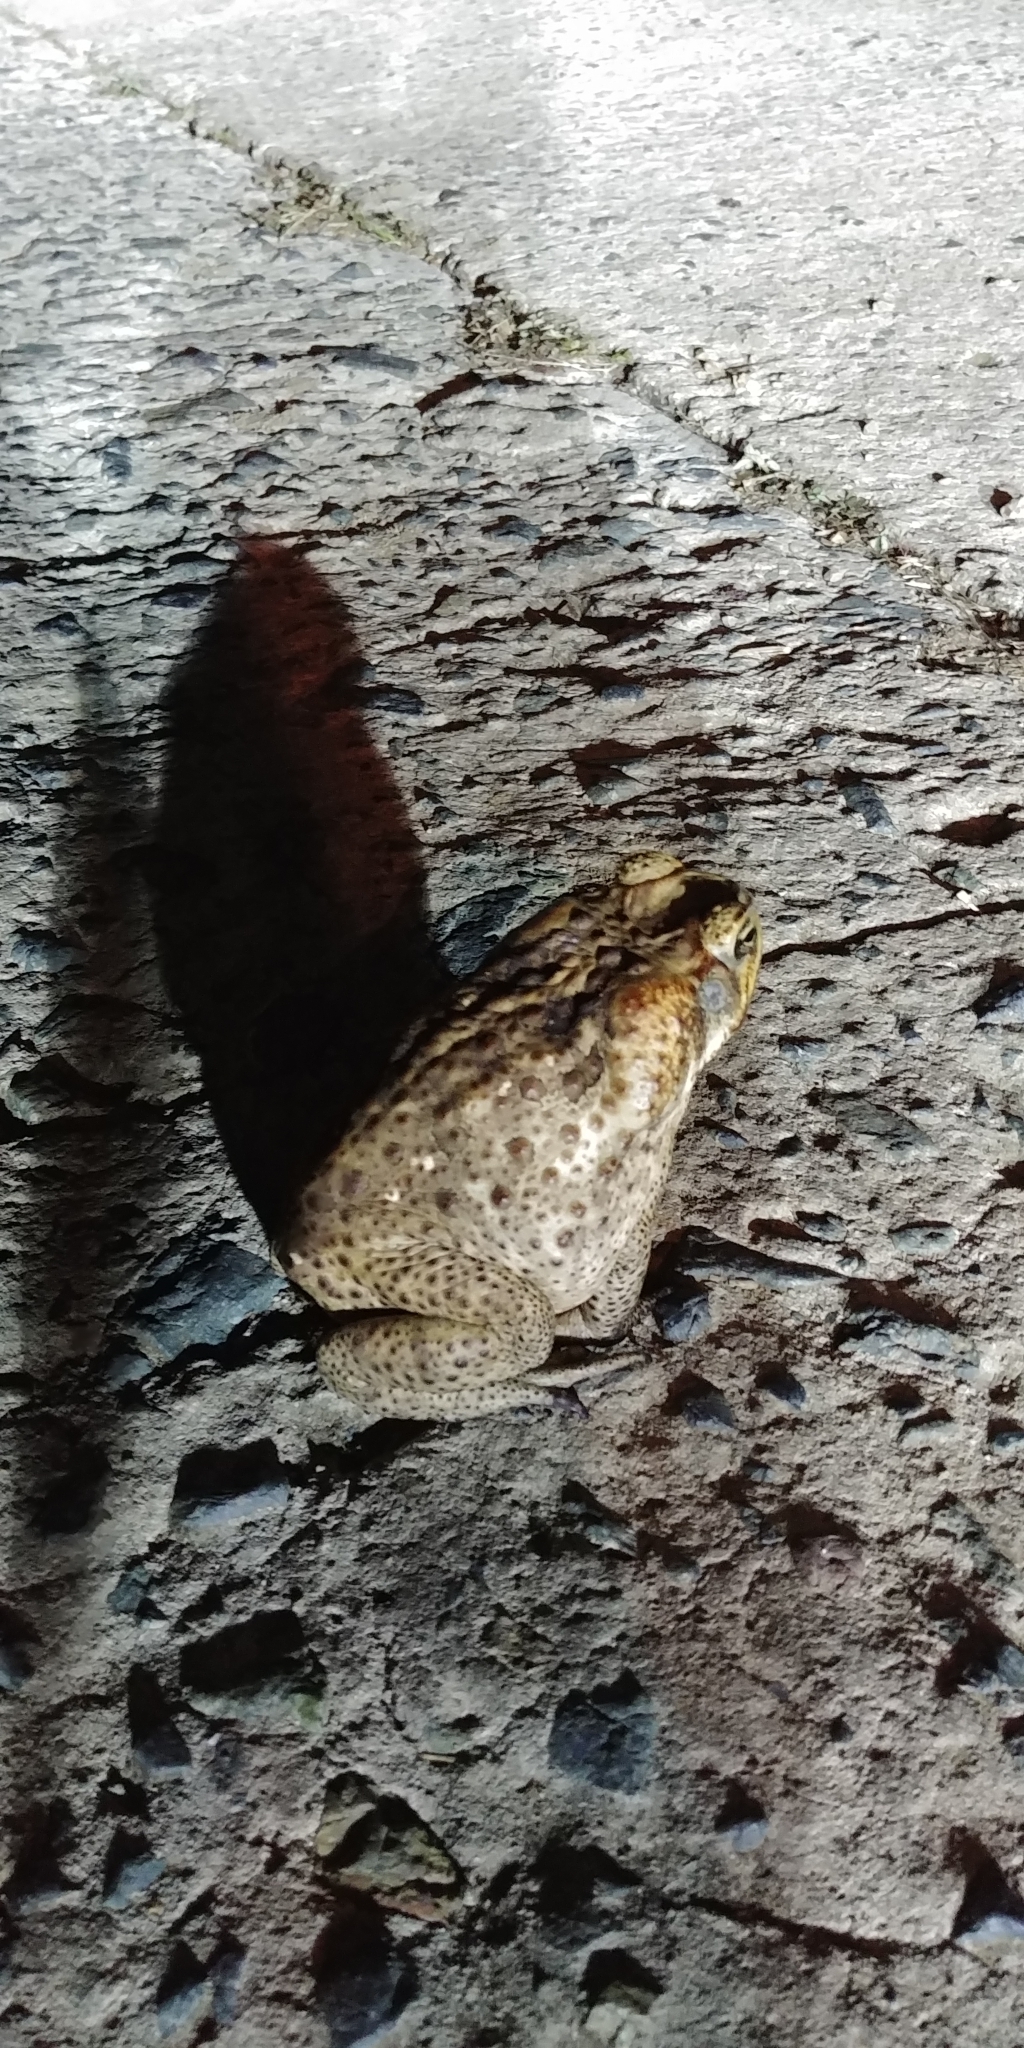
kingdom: Animalia
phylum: Chordata
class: Amphibia
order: Anura
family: Bufonidae
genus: Rhinella
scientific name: Rhinella marina
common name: Cane toad
